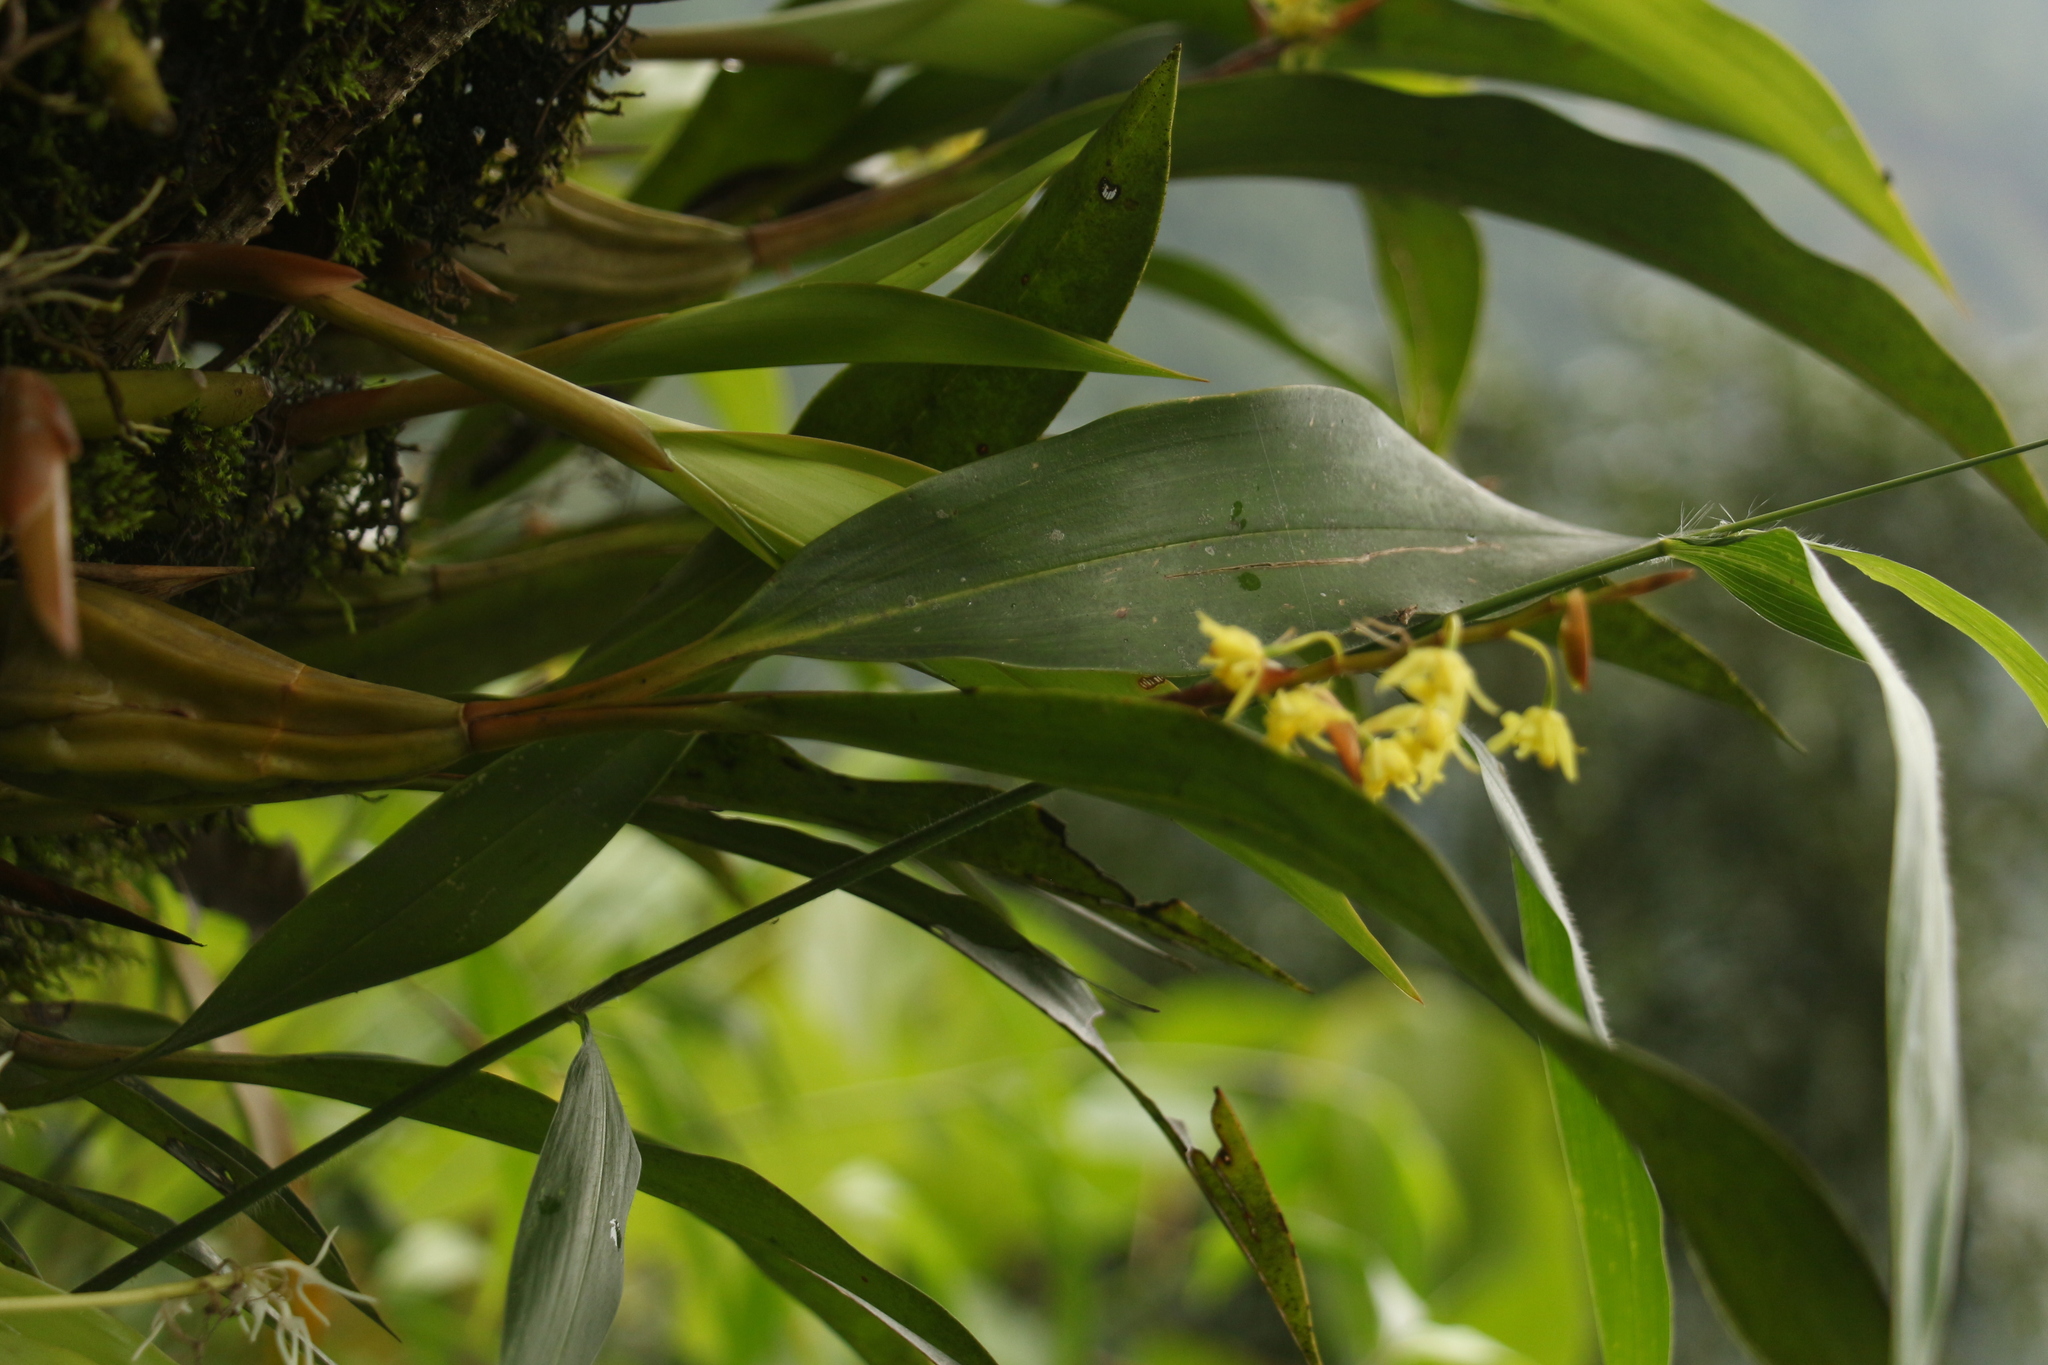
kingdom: Plantae
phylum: Tracheophyta
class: Liliopsida
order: Asparagales
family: Orchidaceae
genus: Coelogyne
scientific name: Coelogyne prolifera
